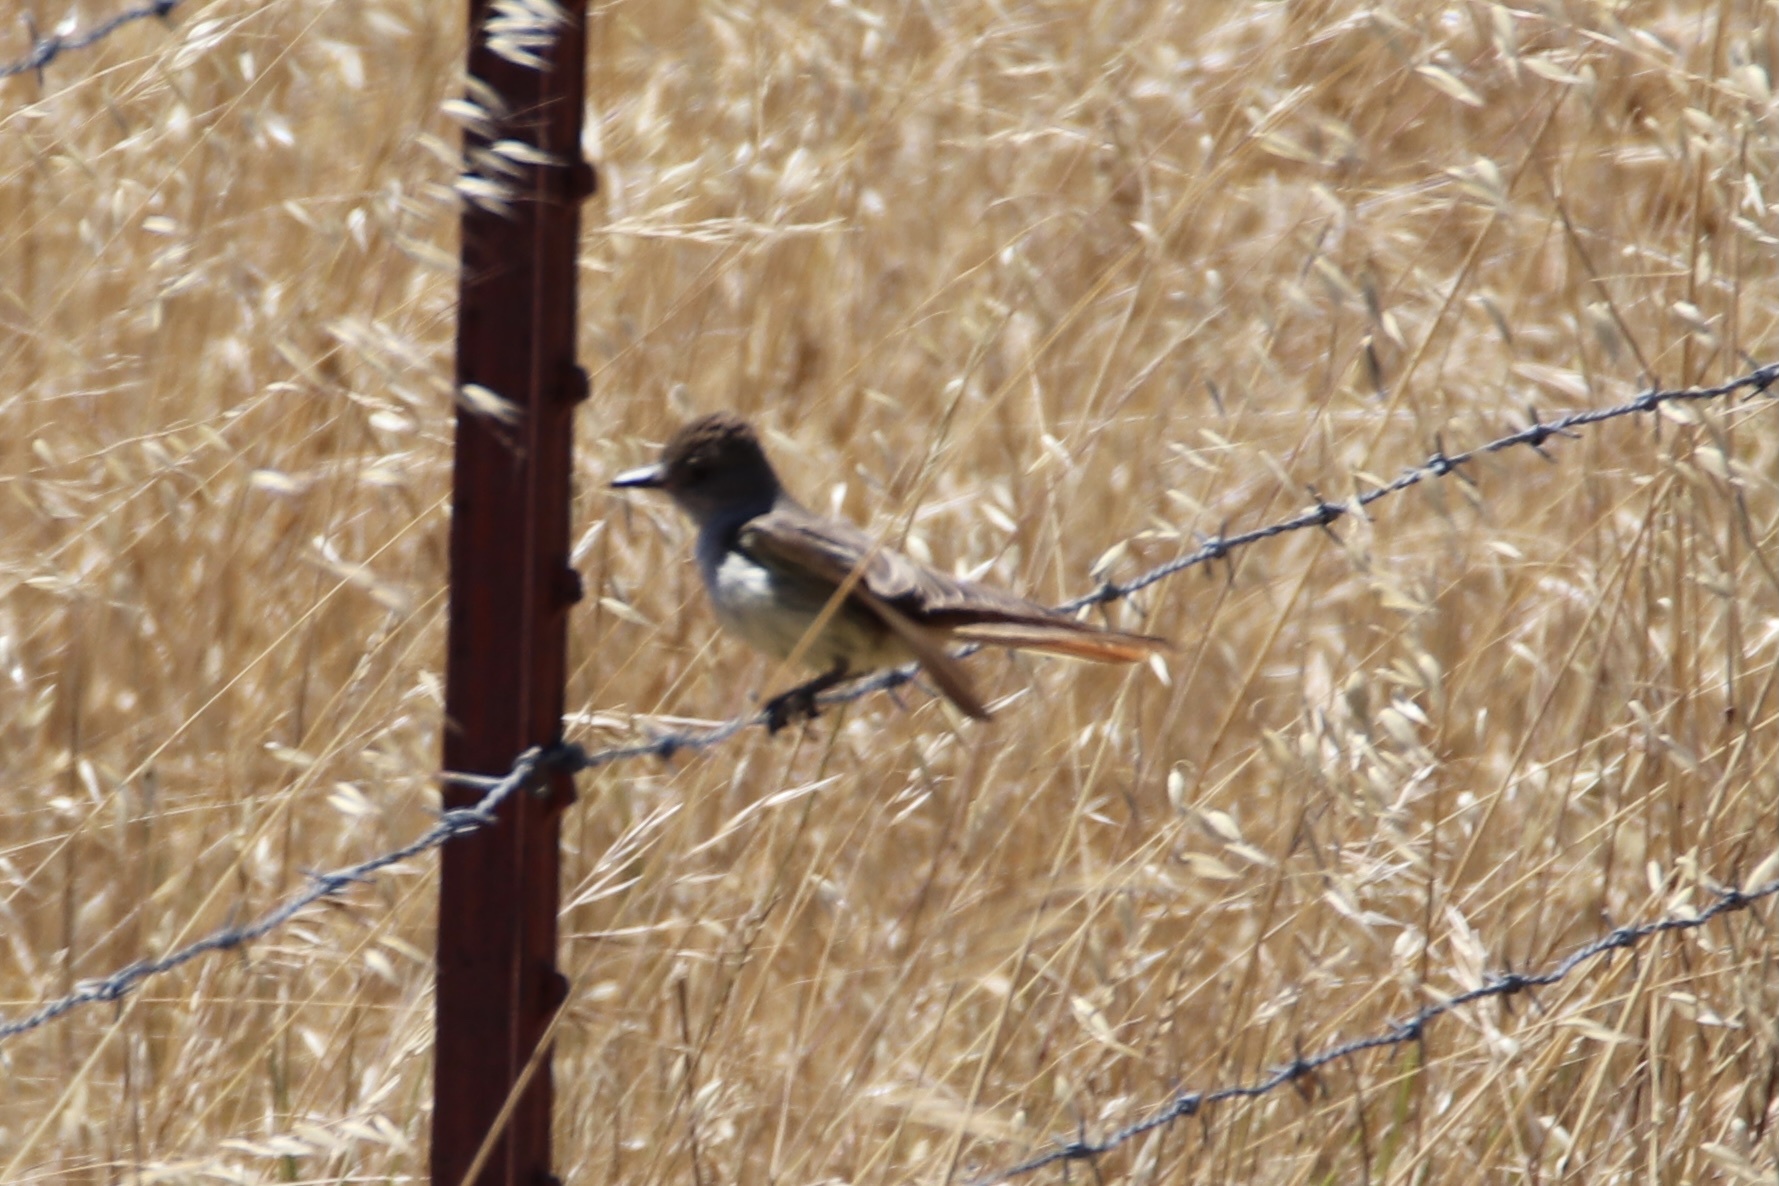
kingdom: Animalia
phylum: Chordata
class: Aves
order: Passeriformes
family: Tyrannidae
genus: Myiarchus
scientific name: Myiarchus cinerascens
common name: Ash-throated flycatcher
